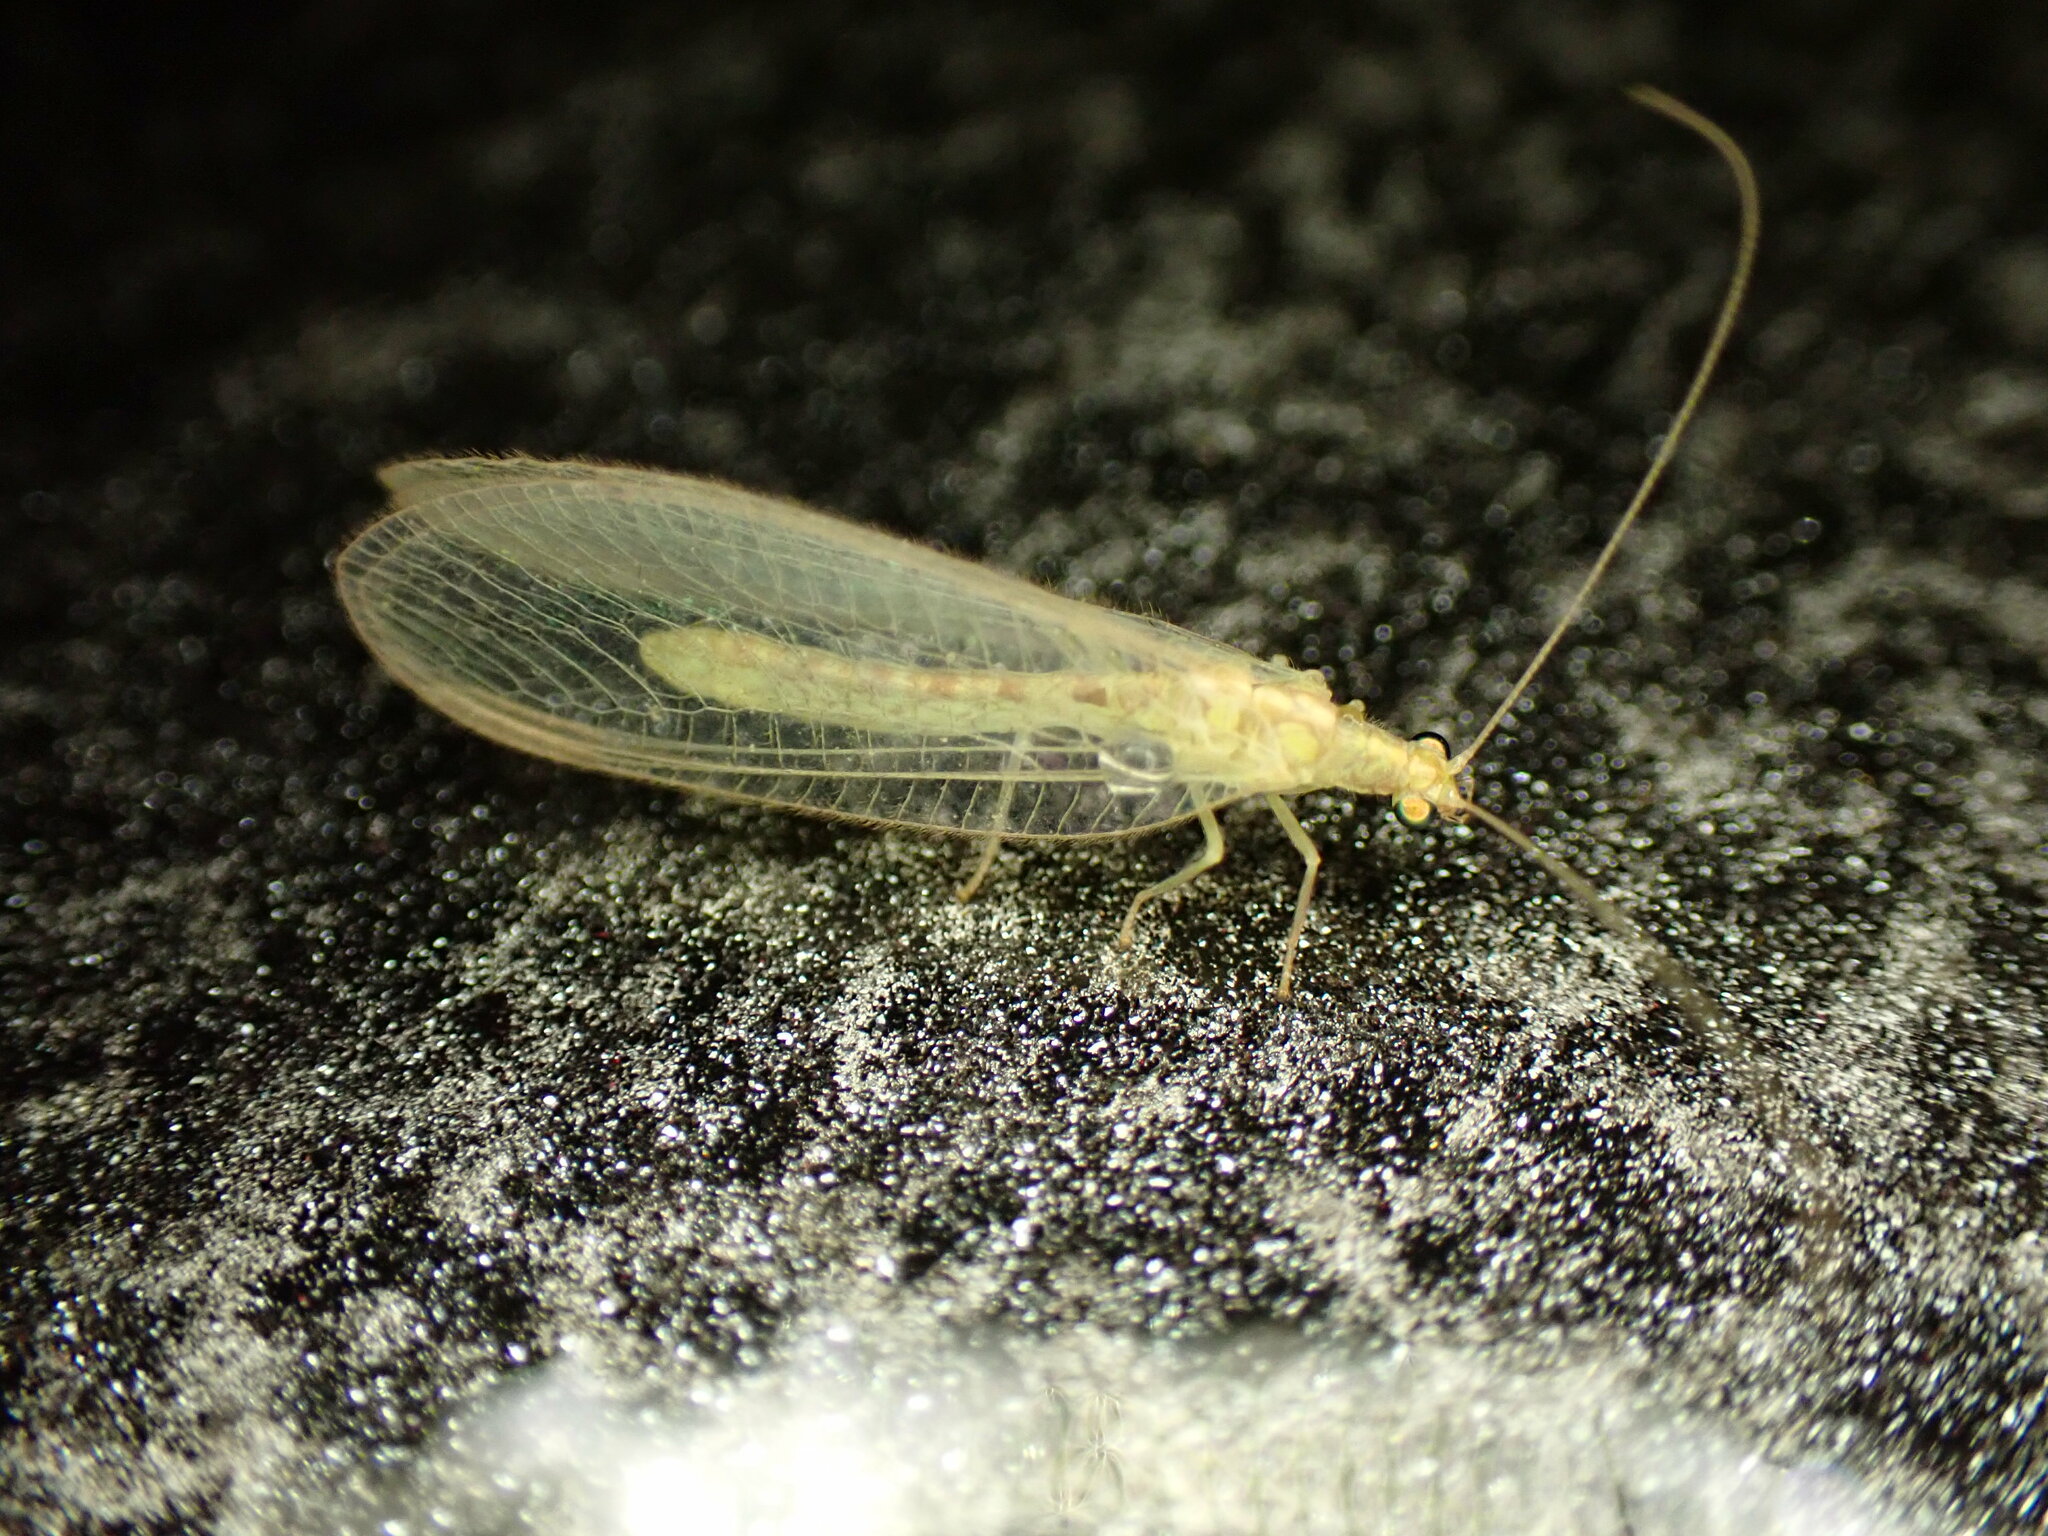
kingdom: Animalia
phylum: Arthropoda
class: Insecta
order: Neuroptera
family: Chrysopidae
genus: Chrysoperla
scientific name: Chrysoperla
